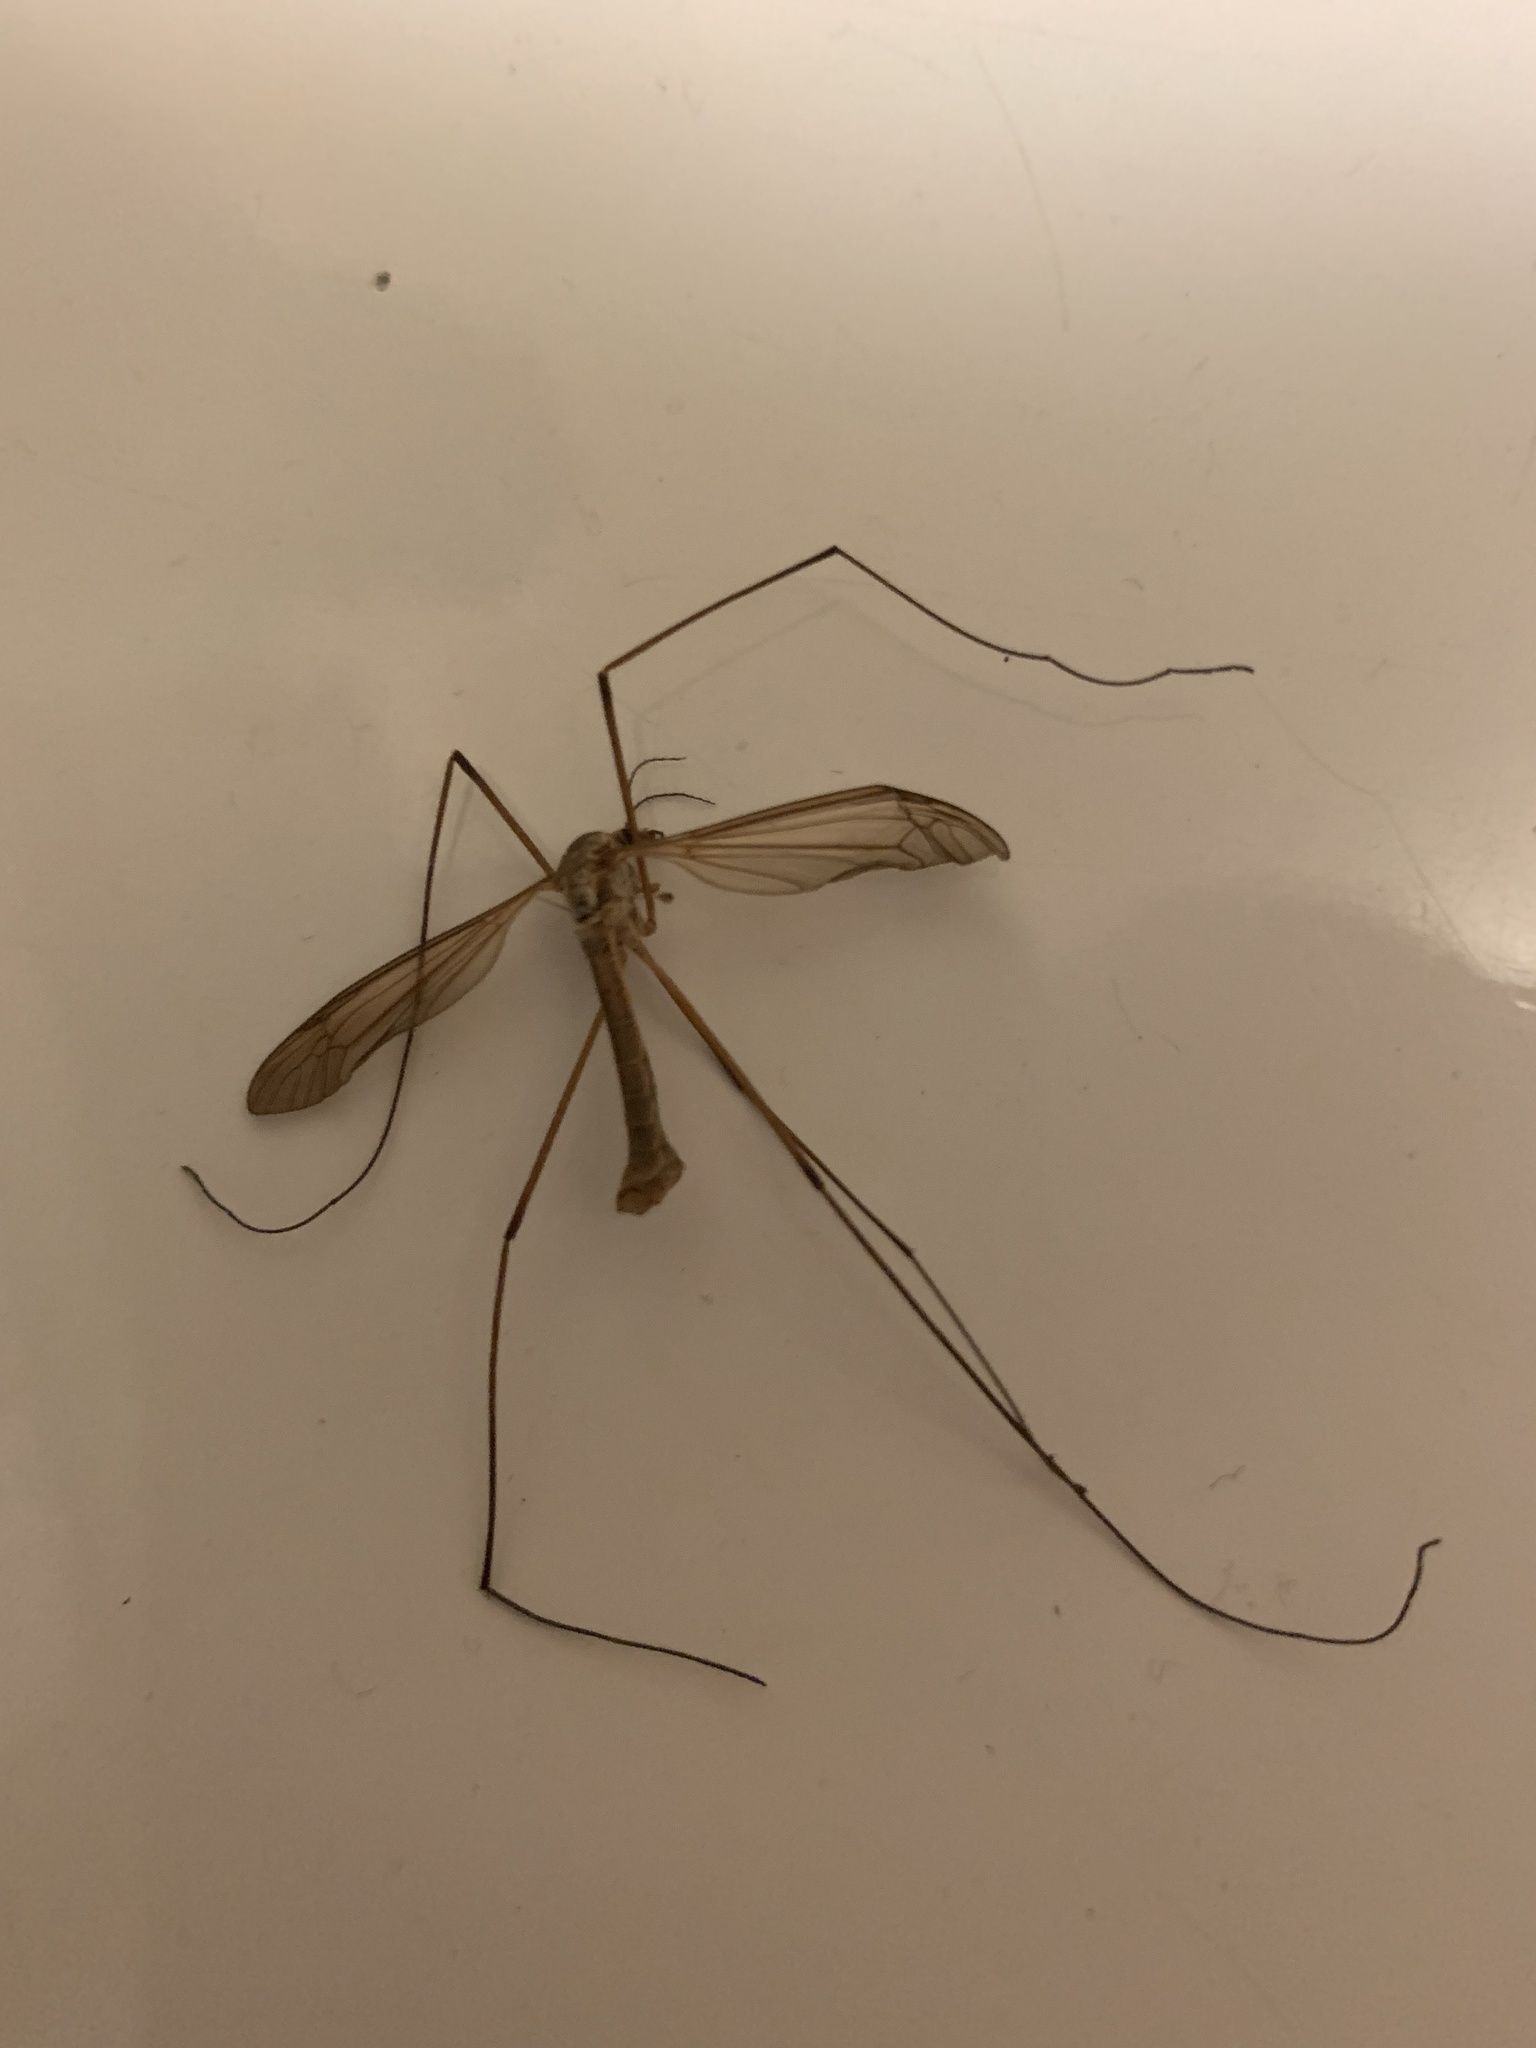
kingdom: Animalia
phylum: Arthropoda
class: Insecta
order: Diptera
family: Tipulidae
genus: Tipula
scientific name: Tipula
